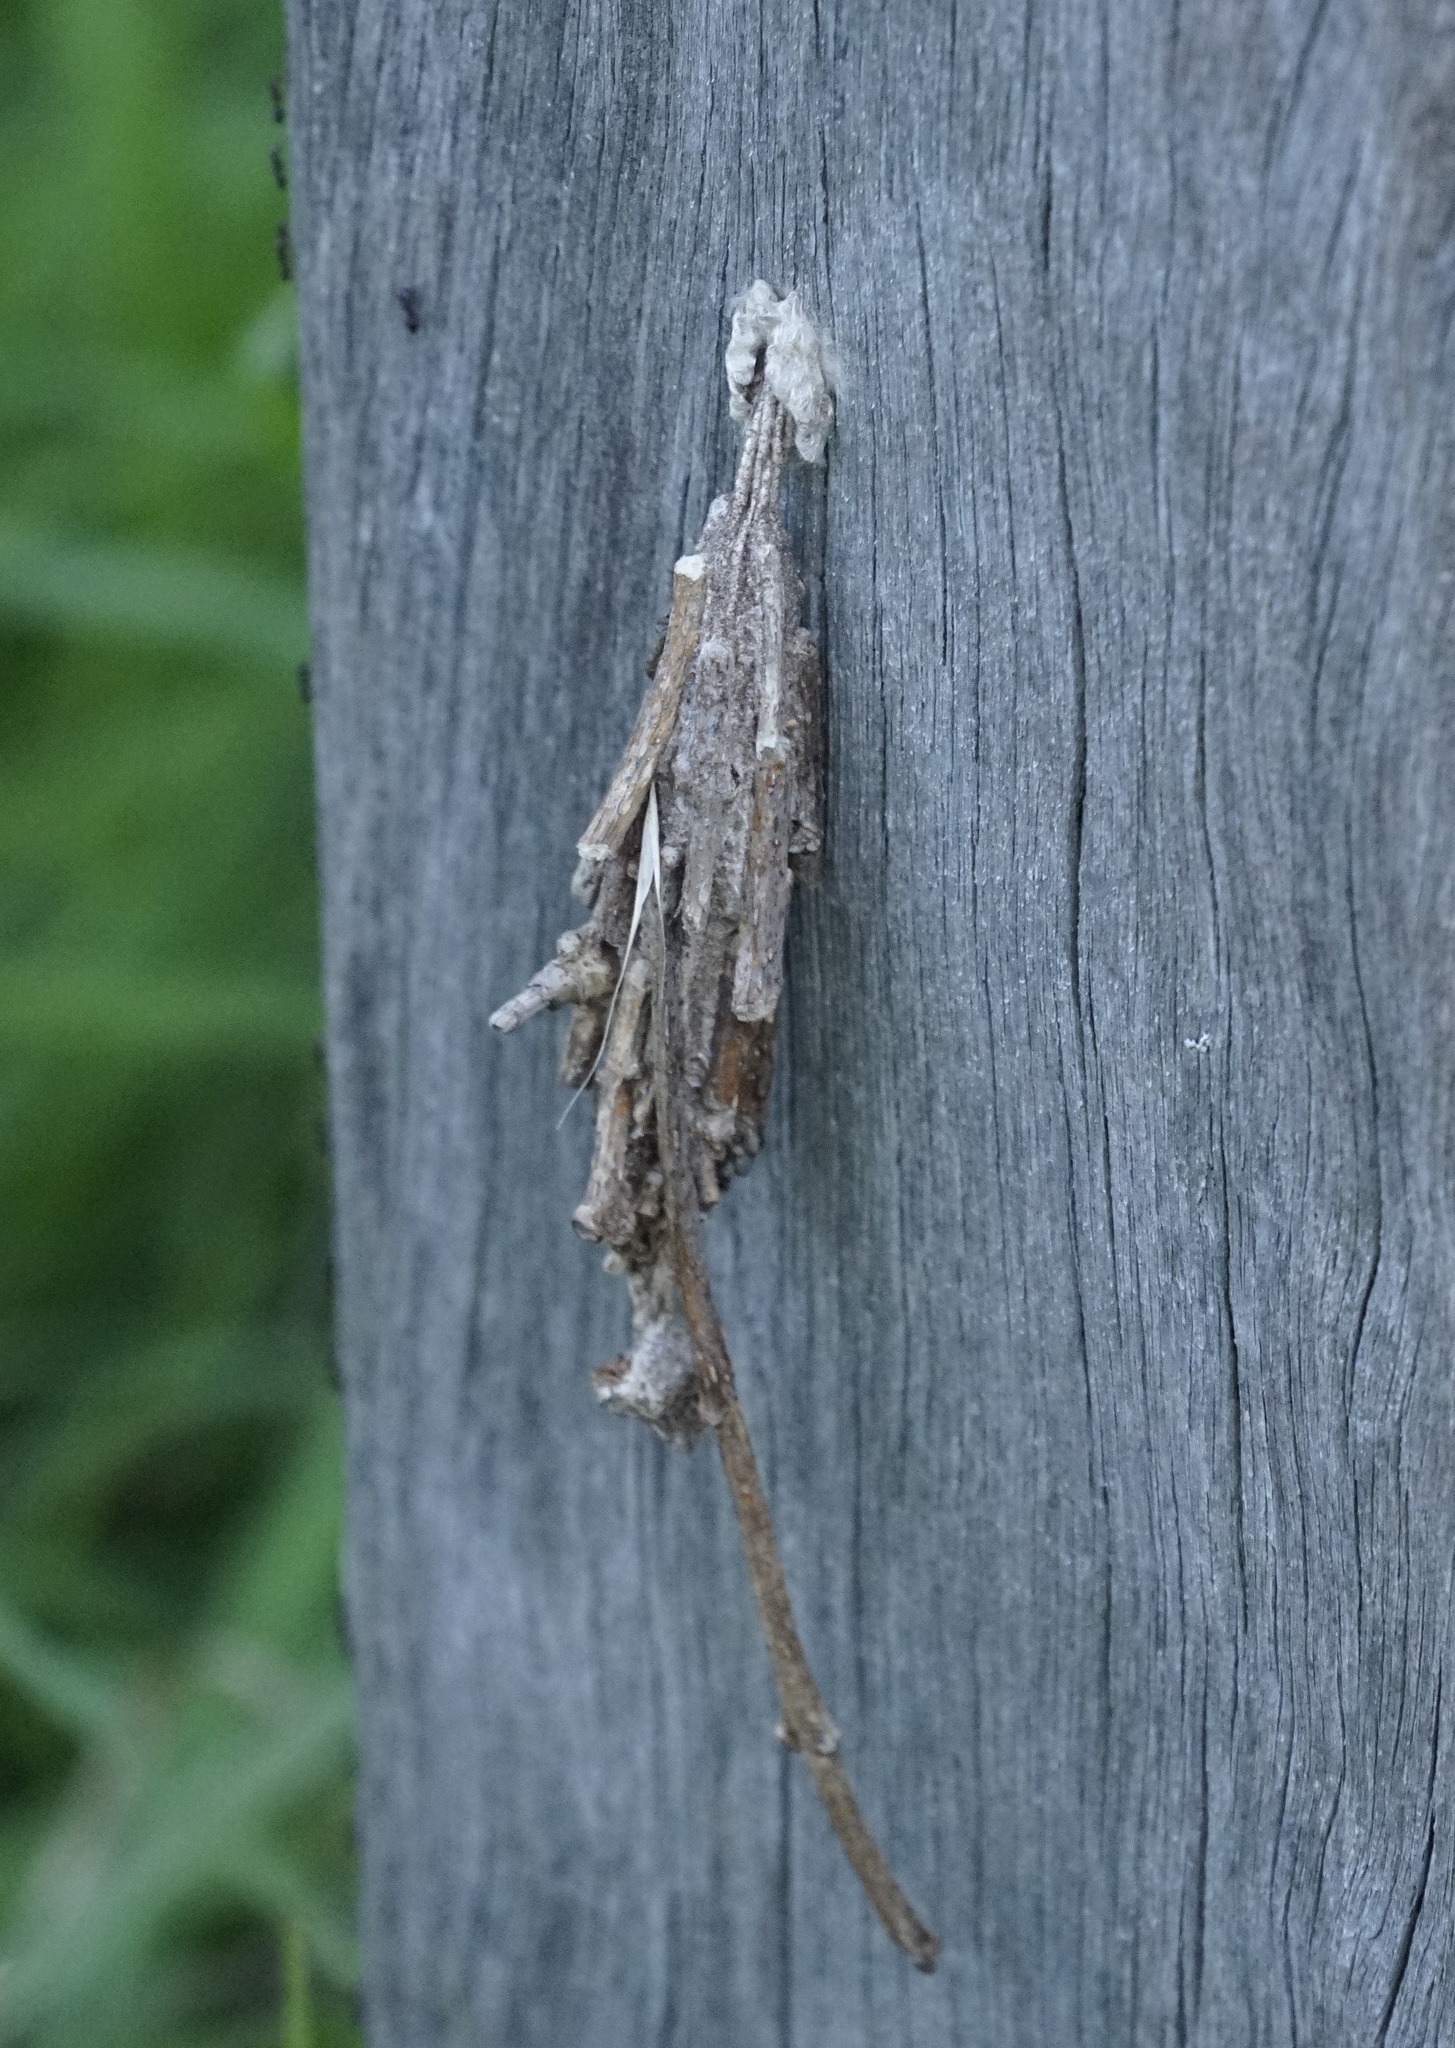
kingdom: Animalia
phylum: Arthropoda
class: Insecta
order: Lepidoptera
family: Psychidae
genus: Metura
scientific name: Metura elongatus
